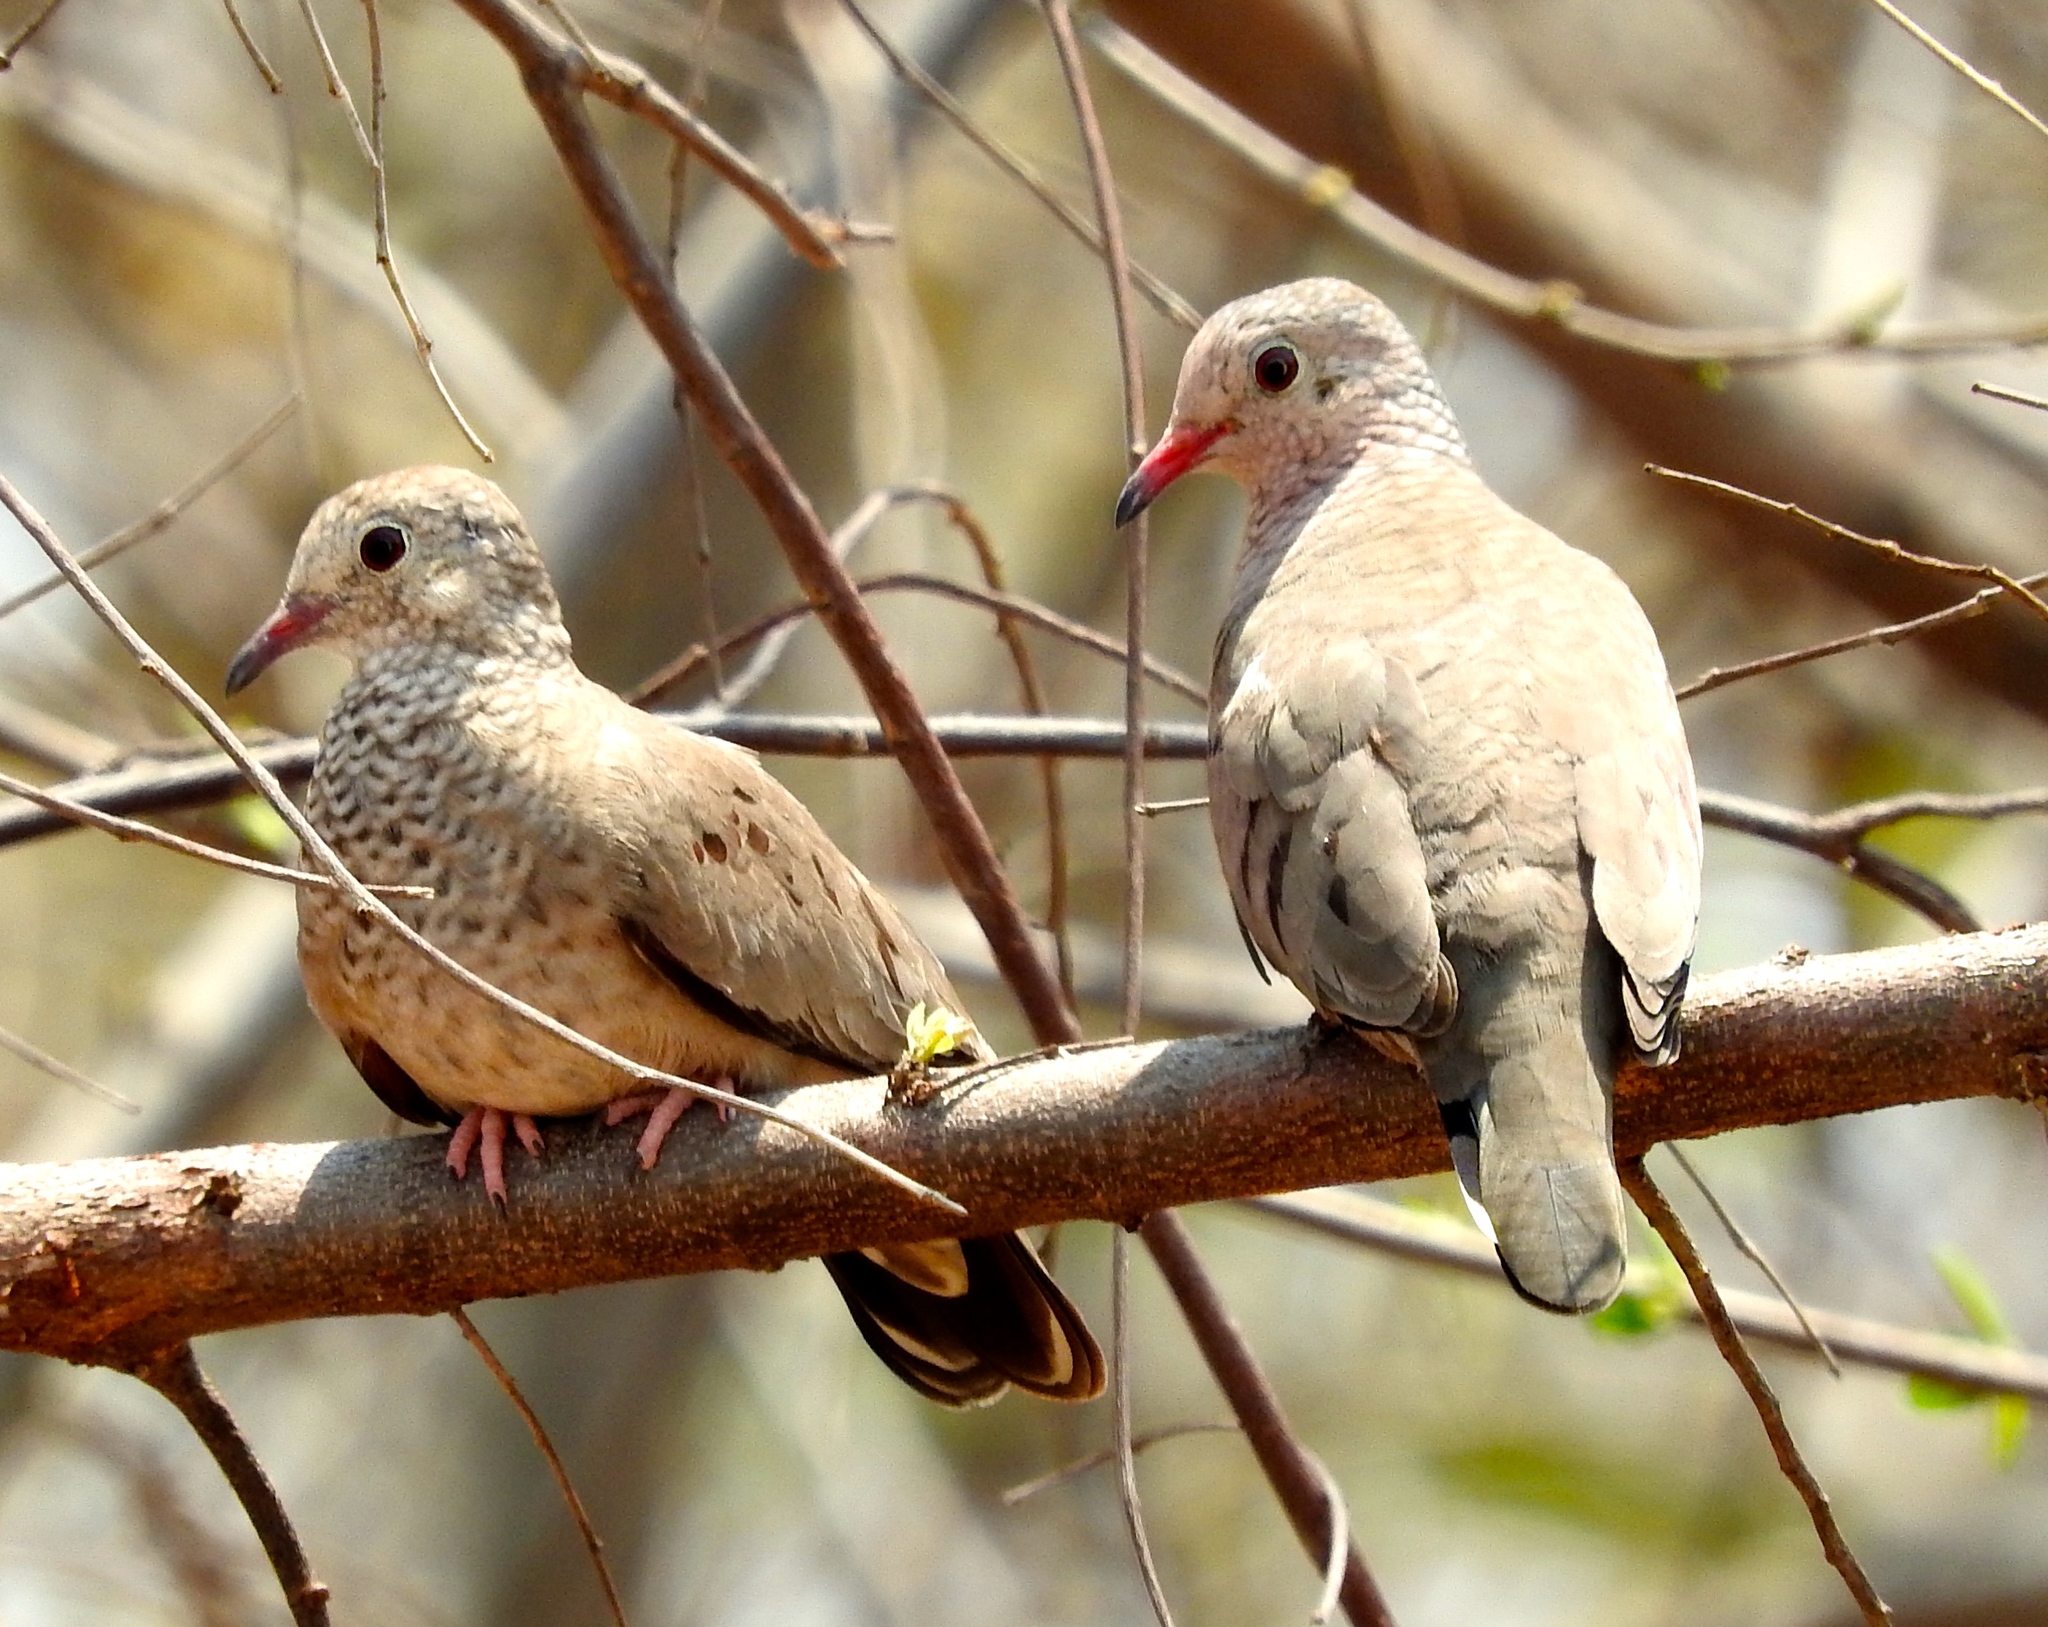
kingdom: Animalia
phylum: Chordata
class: Aves
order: Columbiformes
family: Columbidae
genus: Columbina
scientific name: Columbina passerina
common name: Common ground-dove
